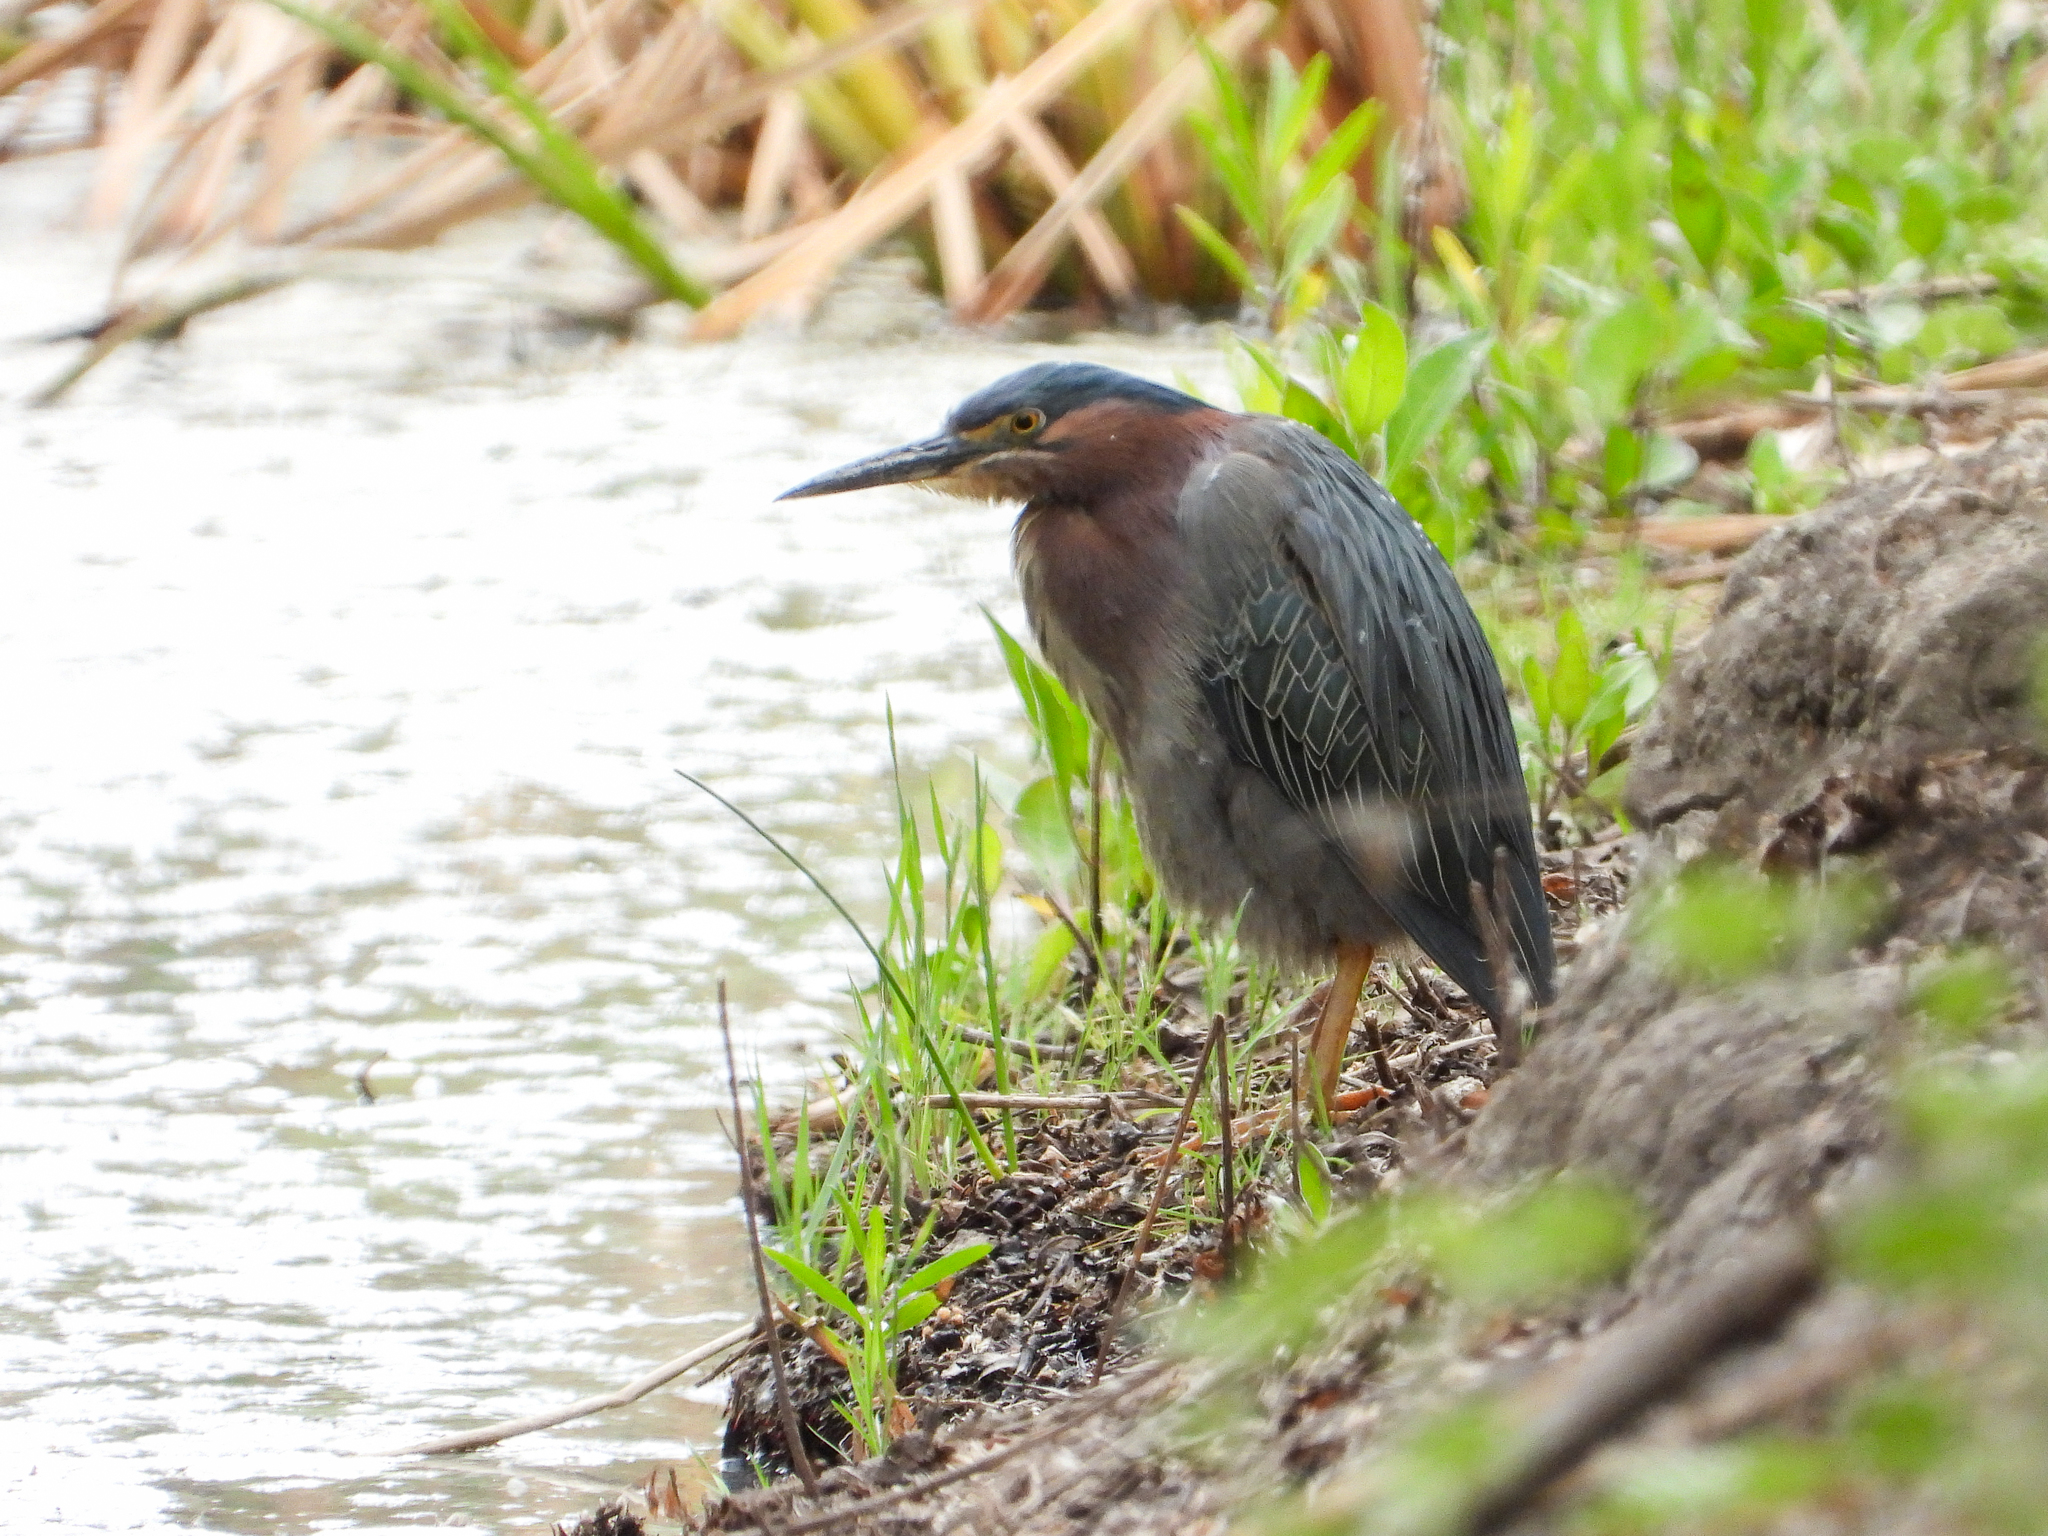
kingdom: Animalia
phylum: Chordata
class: Aves
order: Pelecaniformes
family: Ardeidae
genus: Butorides
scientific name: Butorides virescens
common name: Green heron
